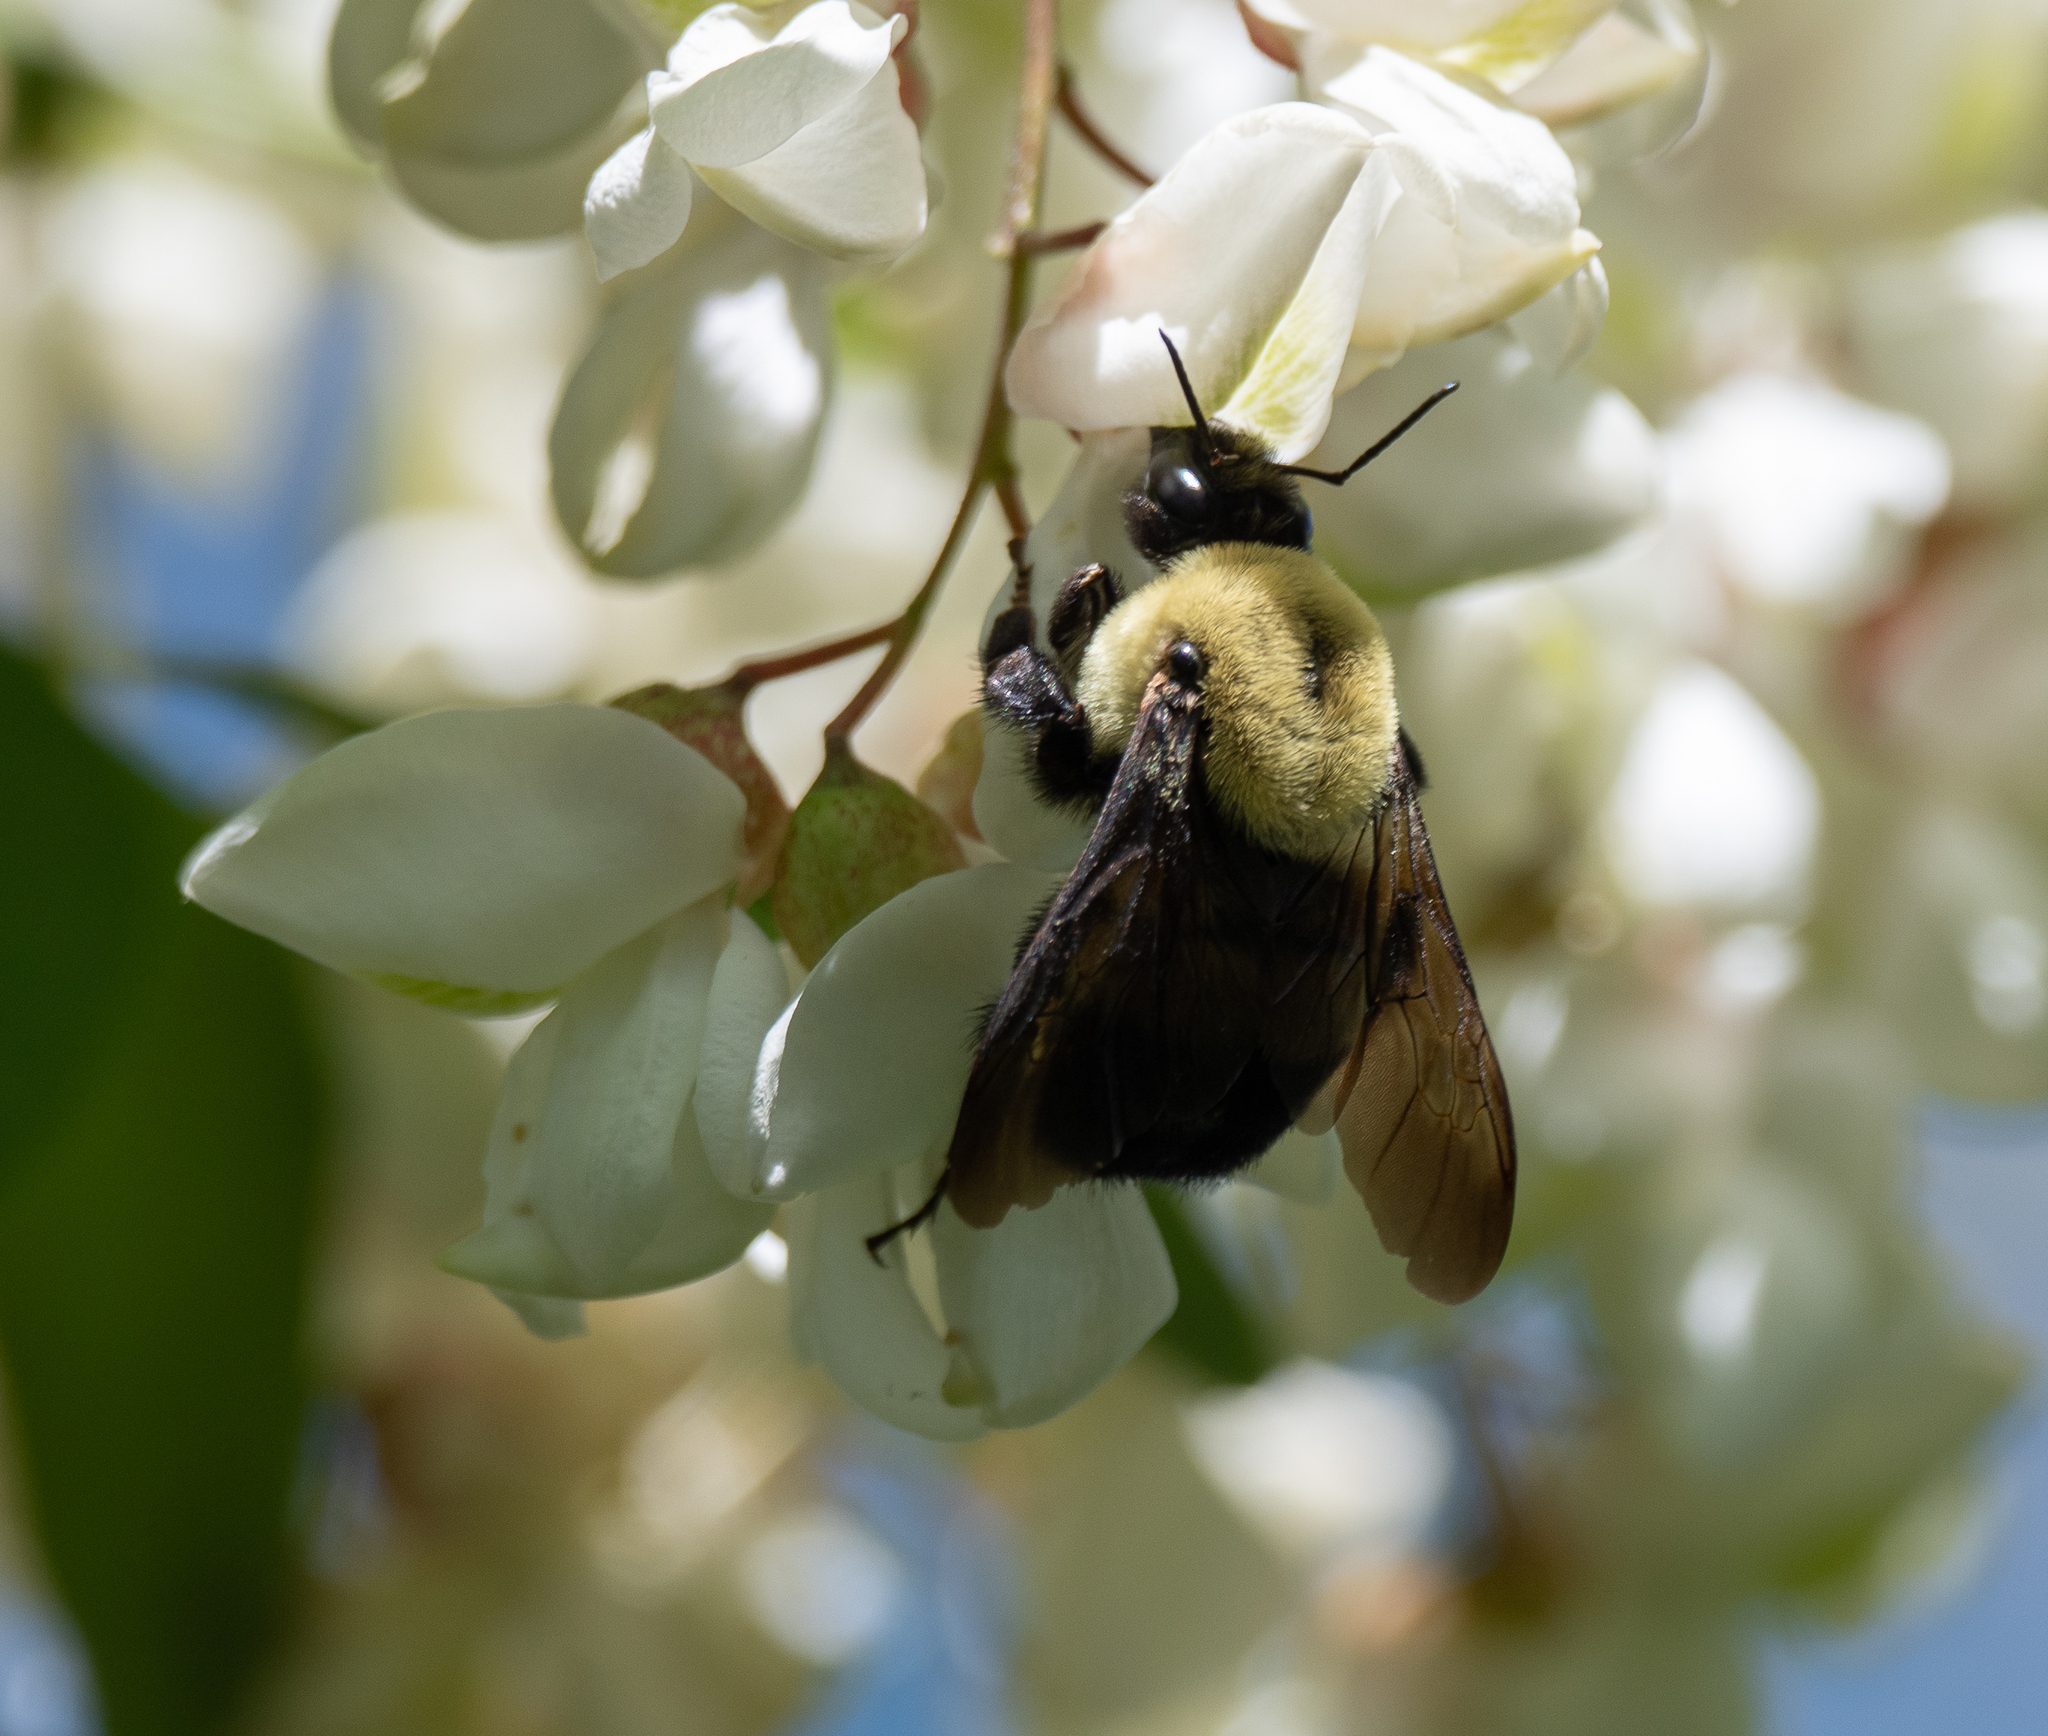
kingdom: Animalia
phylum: Arthropoda
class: Insecta
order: Hymenoptera
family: Apidae
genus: Bombus
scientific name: Bombus griseocollis
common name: Brown-belted bumble bee
